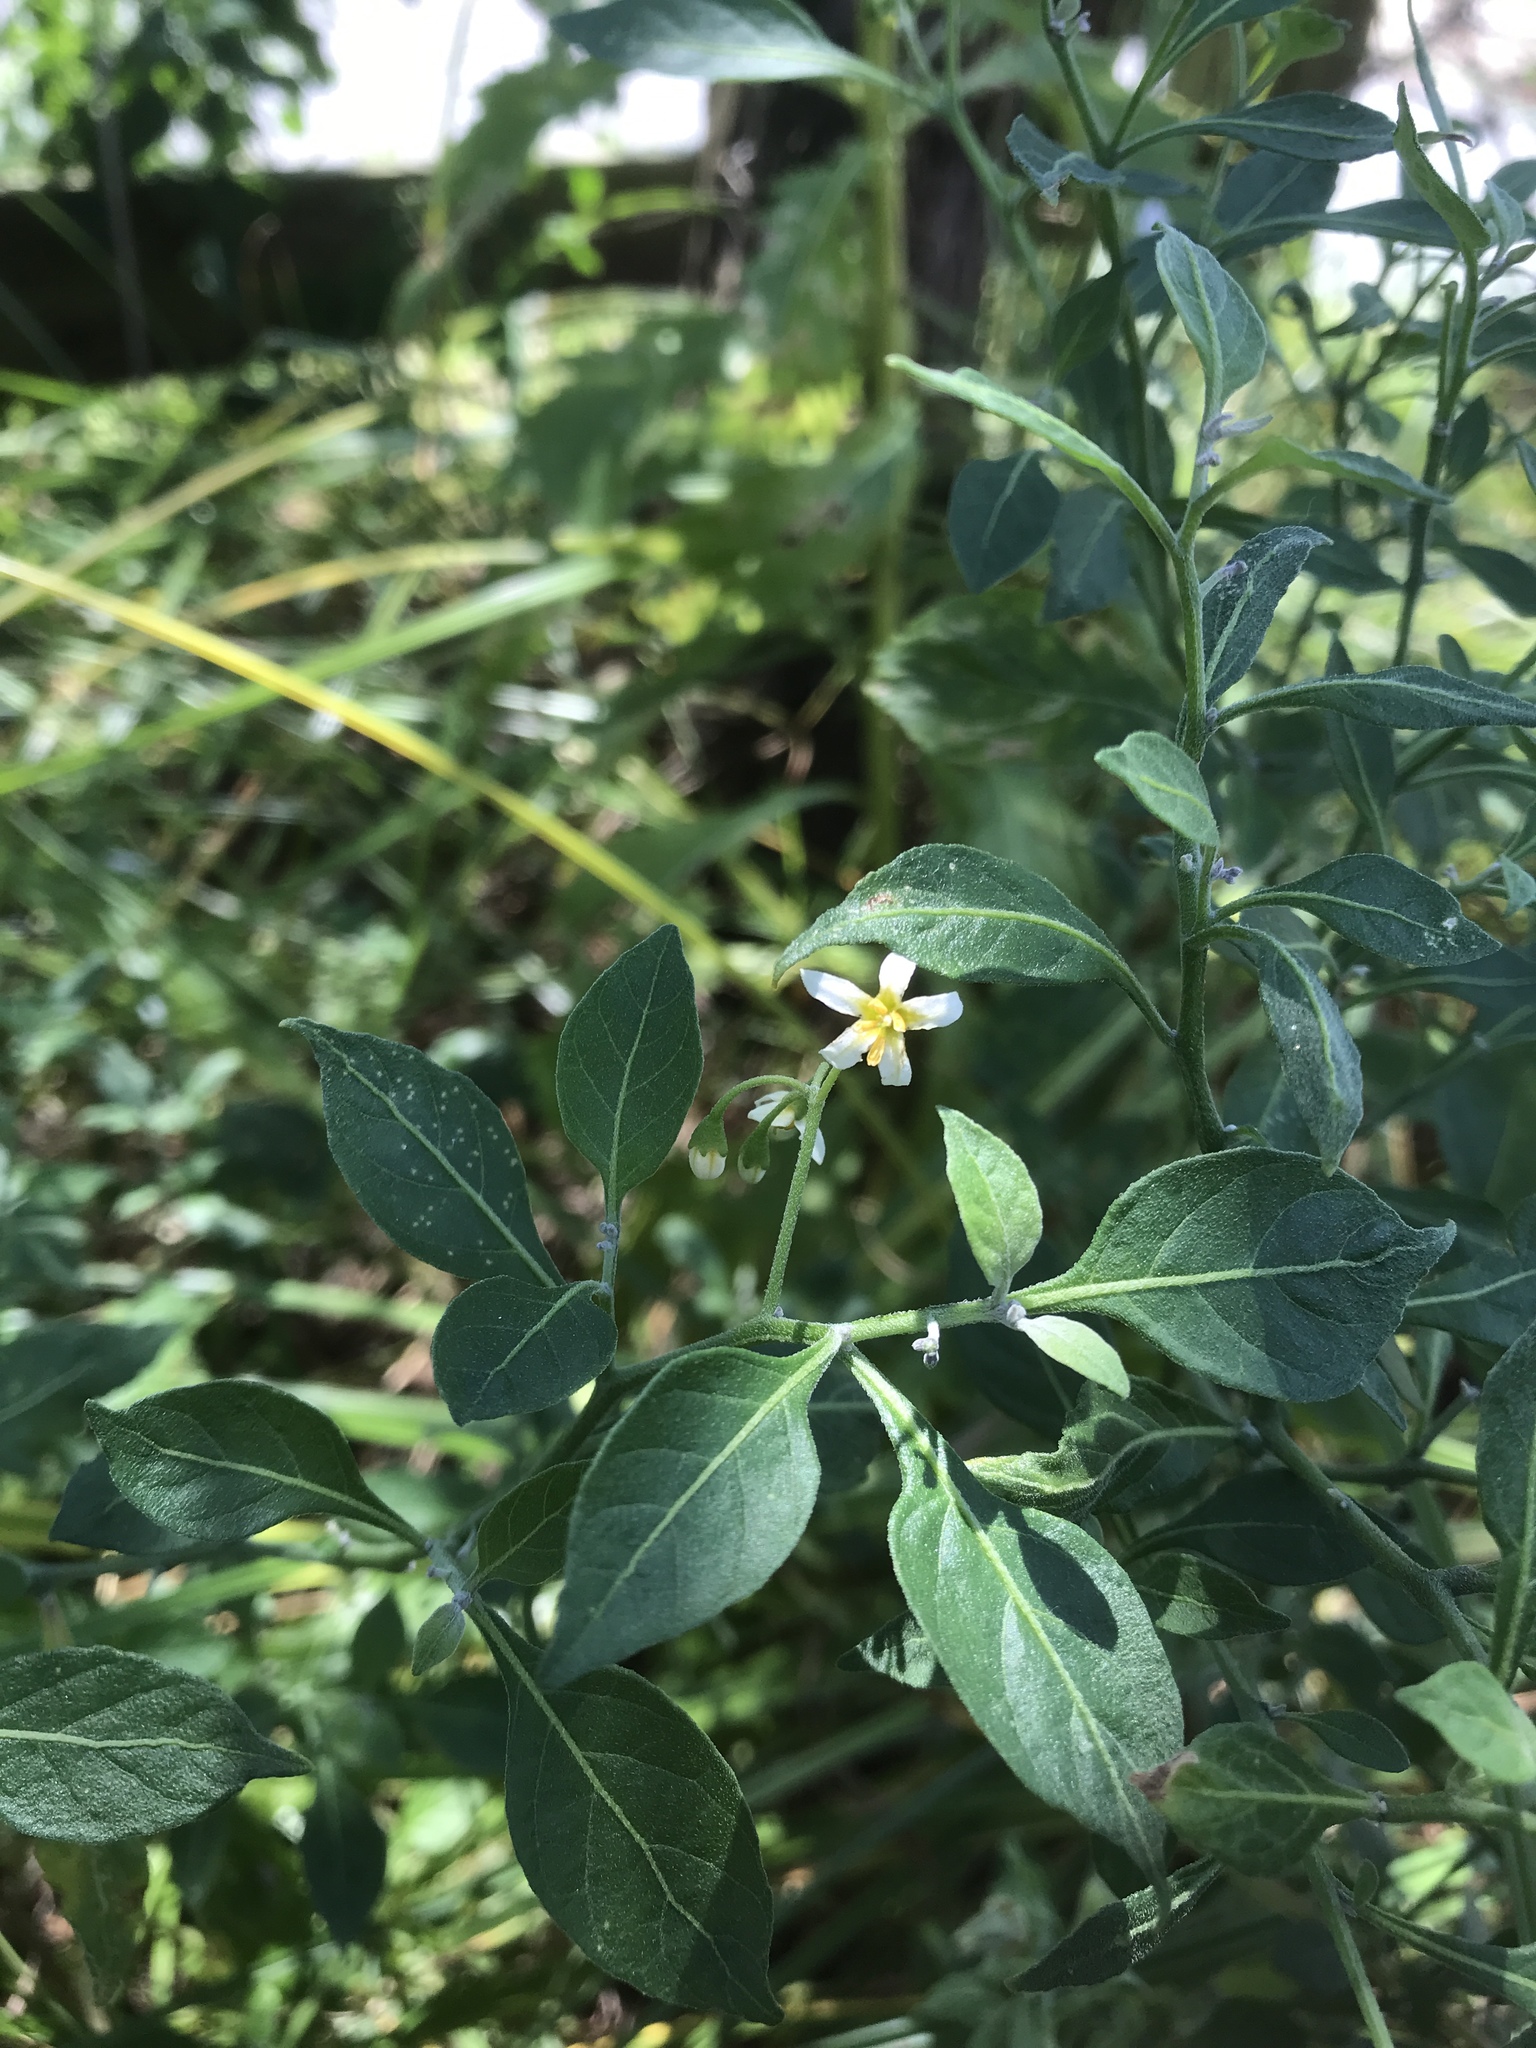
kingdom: Plantae
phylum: Tracheophyta
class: Magnoliopsida
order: Solanales
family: Solanaceae
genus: Solanum
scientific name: Solanum emulans
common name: Eastern black nightshade
